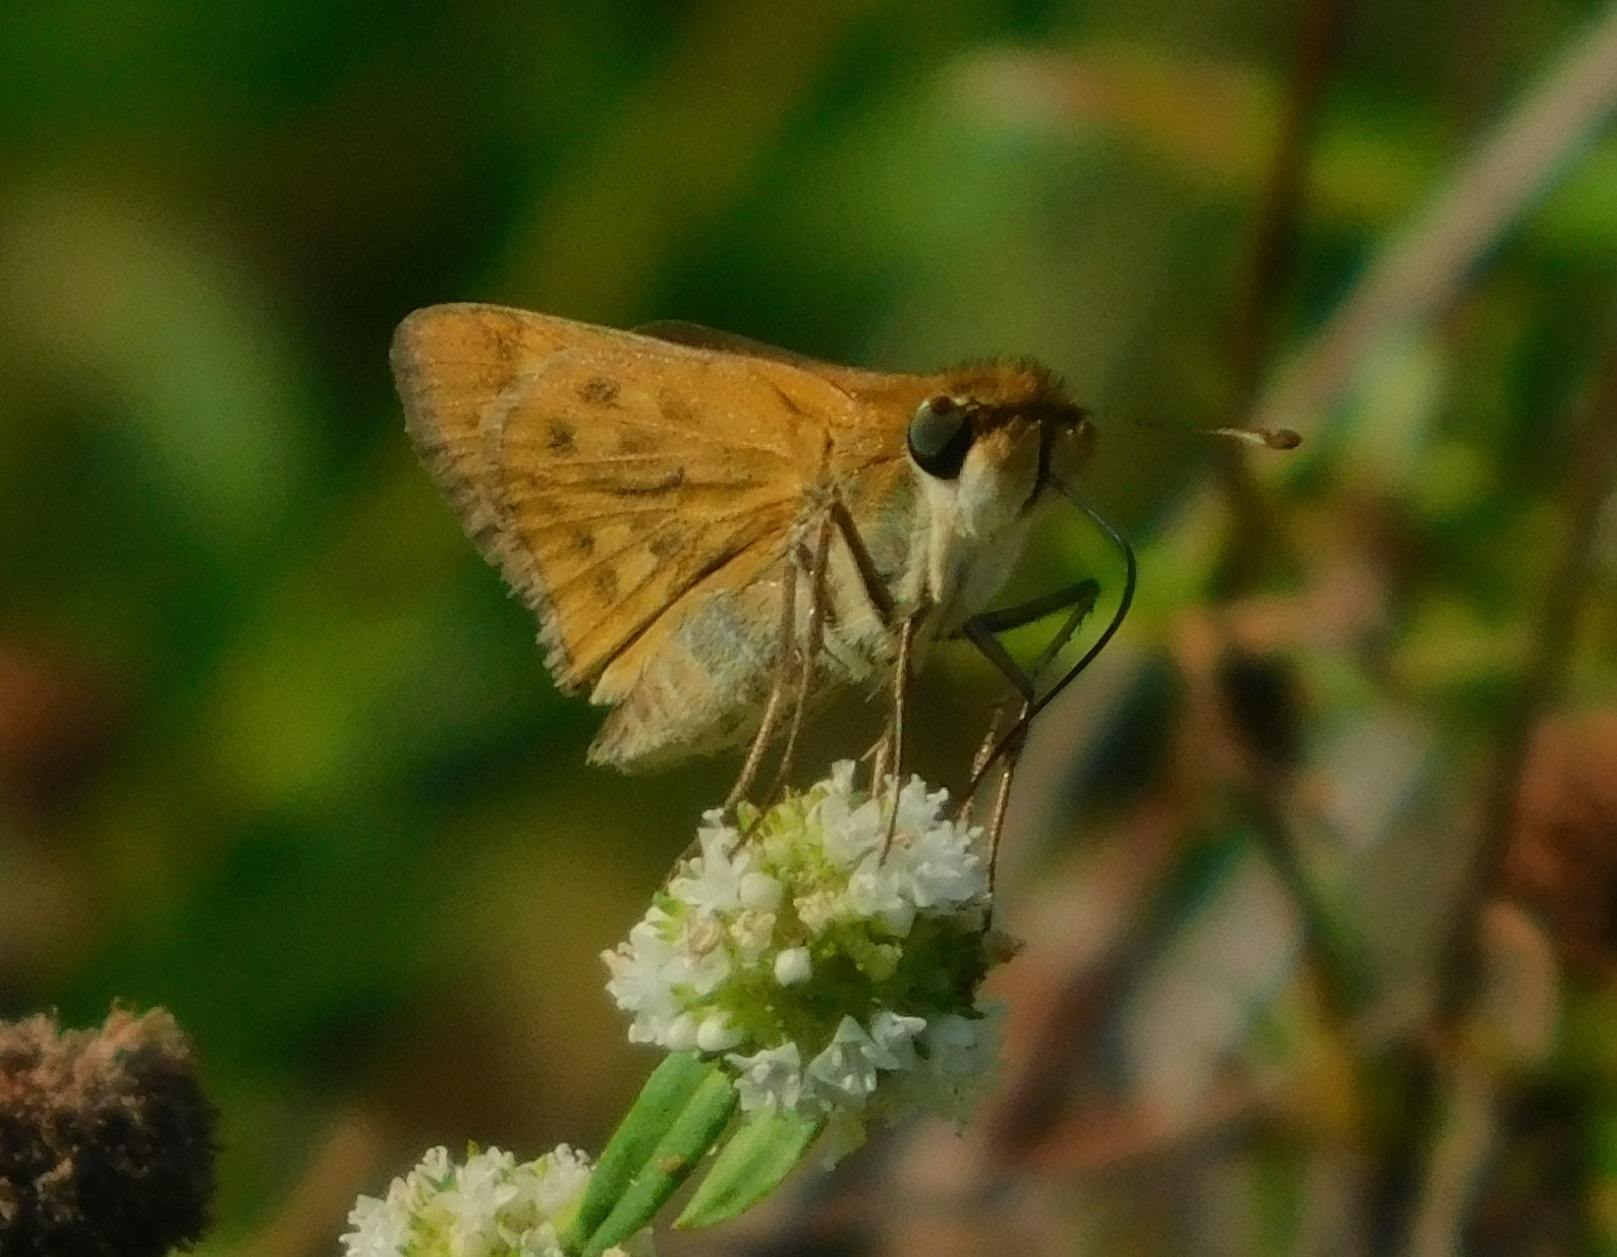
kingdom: Animalia
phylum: Arthropoda
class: Insecta
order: Lepidoptera
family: Hesperiidae
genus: Hylephila
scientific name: Hylephila phyleus
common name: Fiery skipper
